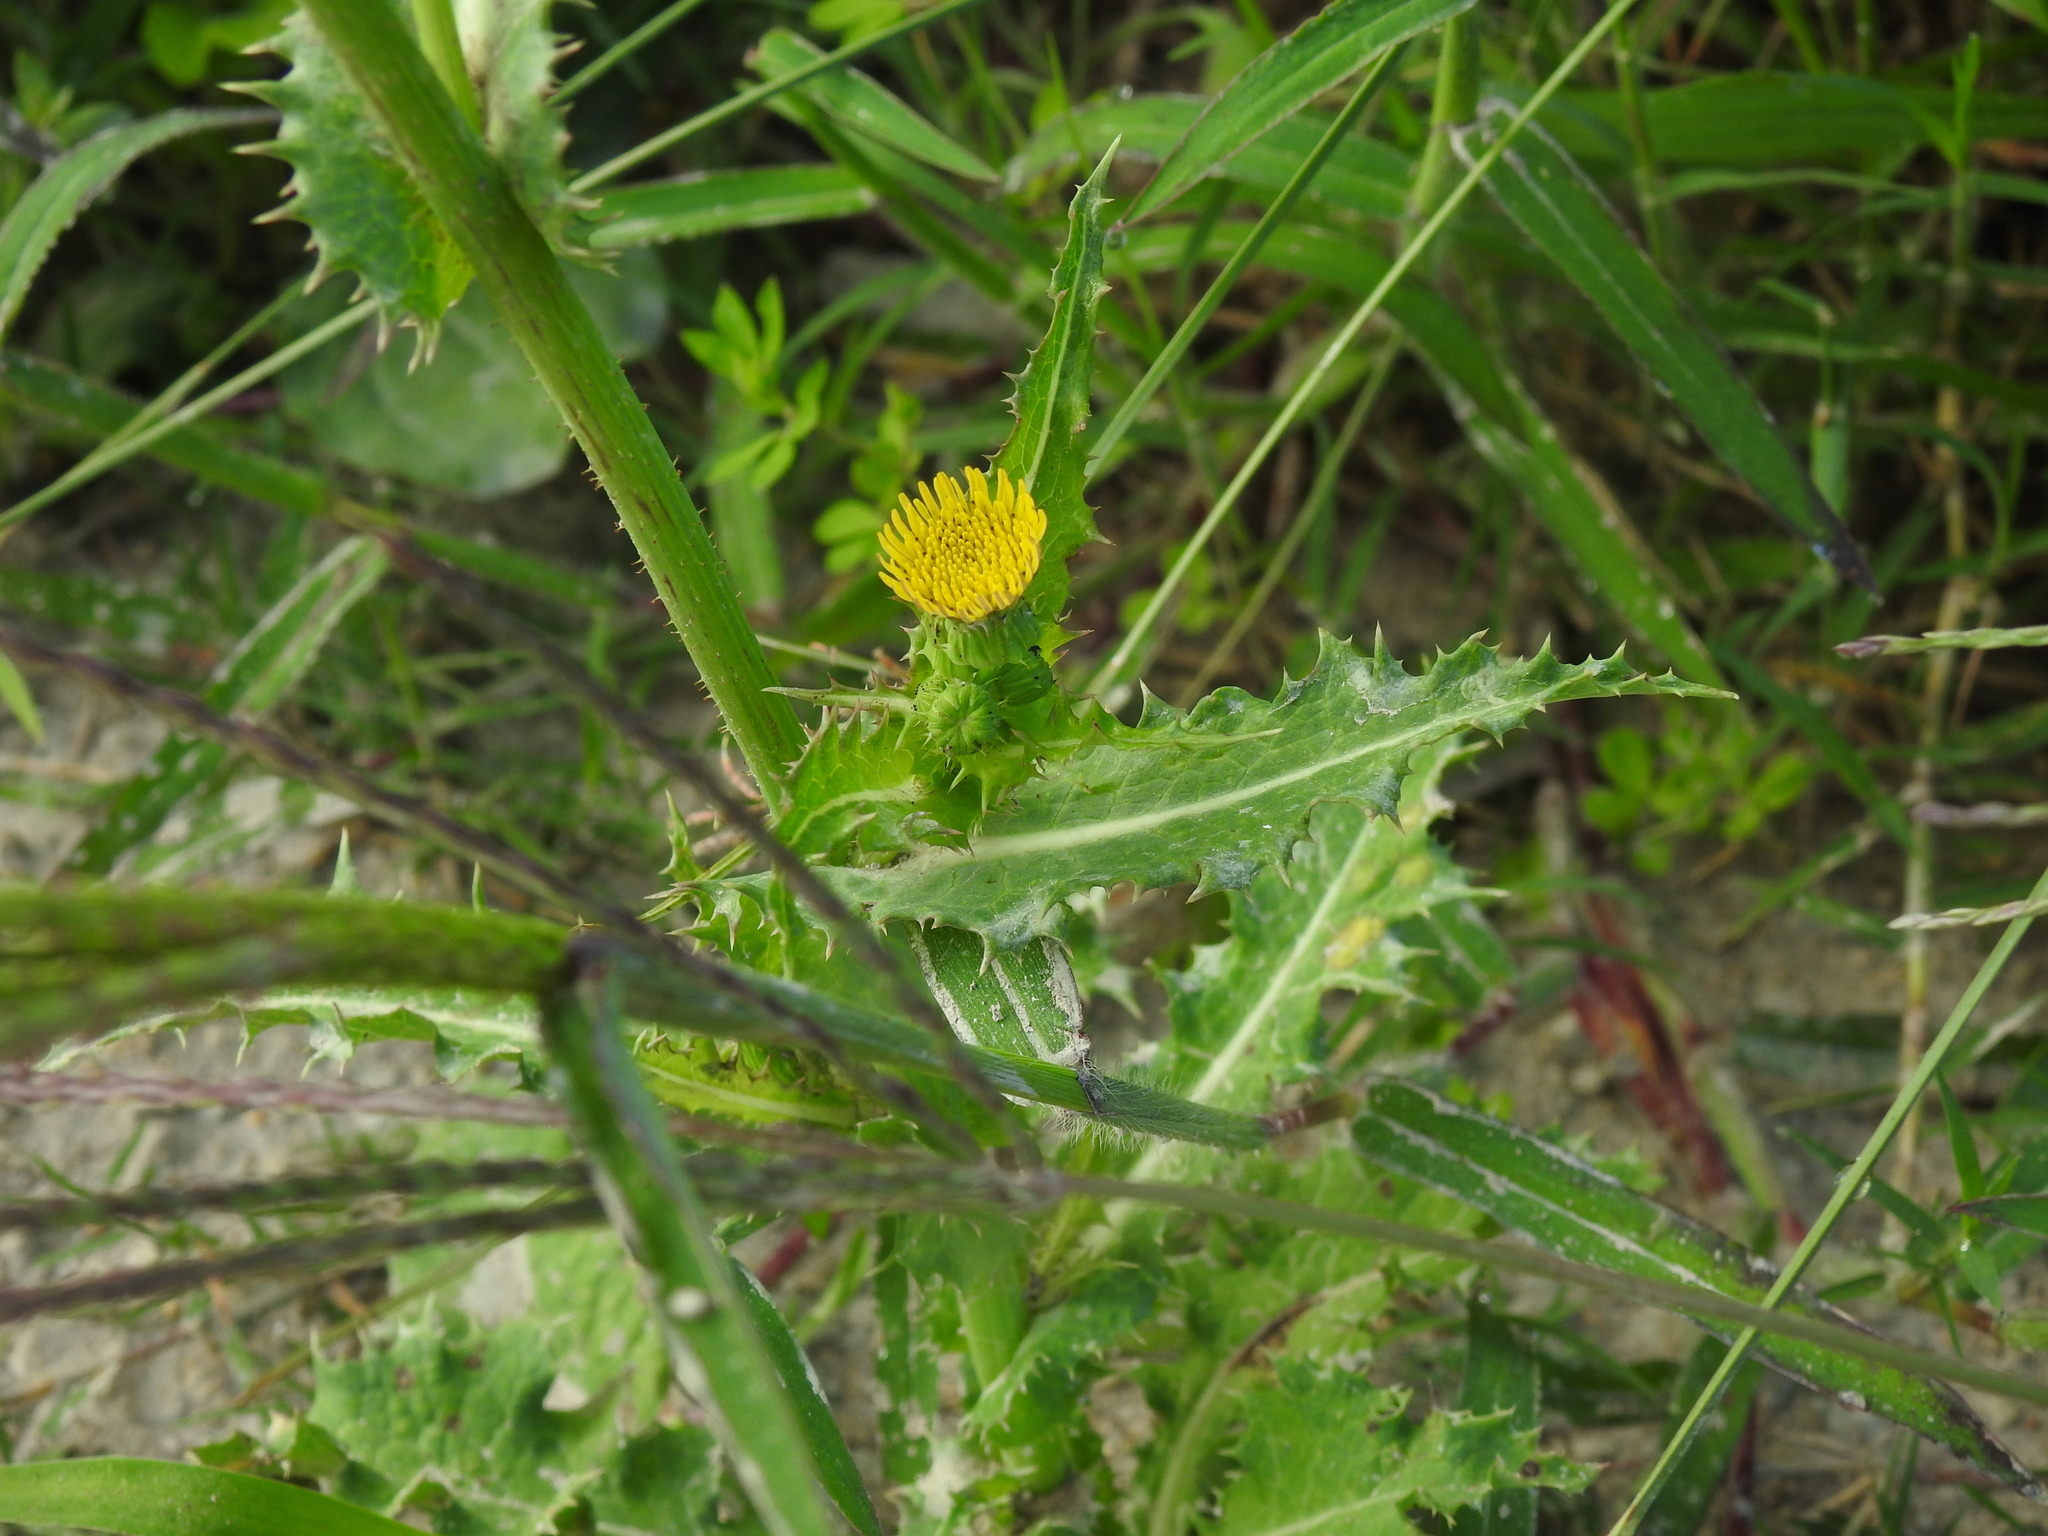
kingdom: Plantae
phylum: Tracheophyta
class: Magnoliopsida
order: Asterales
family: Asteraceae
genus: Sonchus
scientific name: Sonchus asper
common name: Prickly sow-thistle
